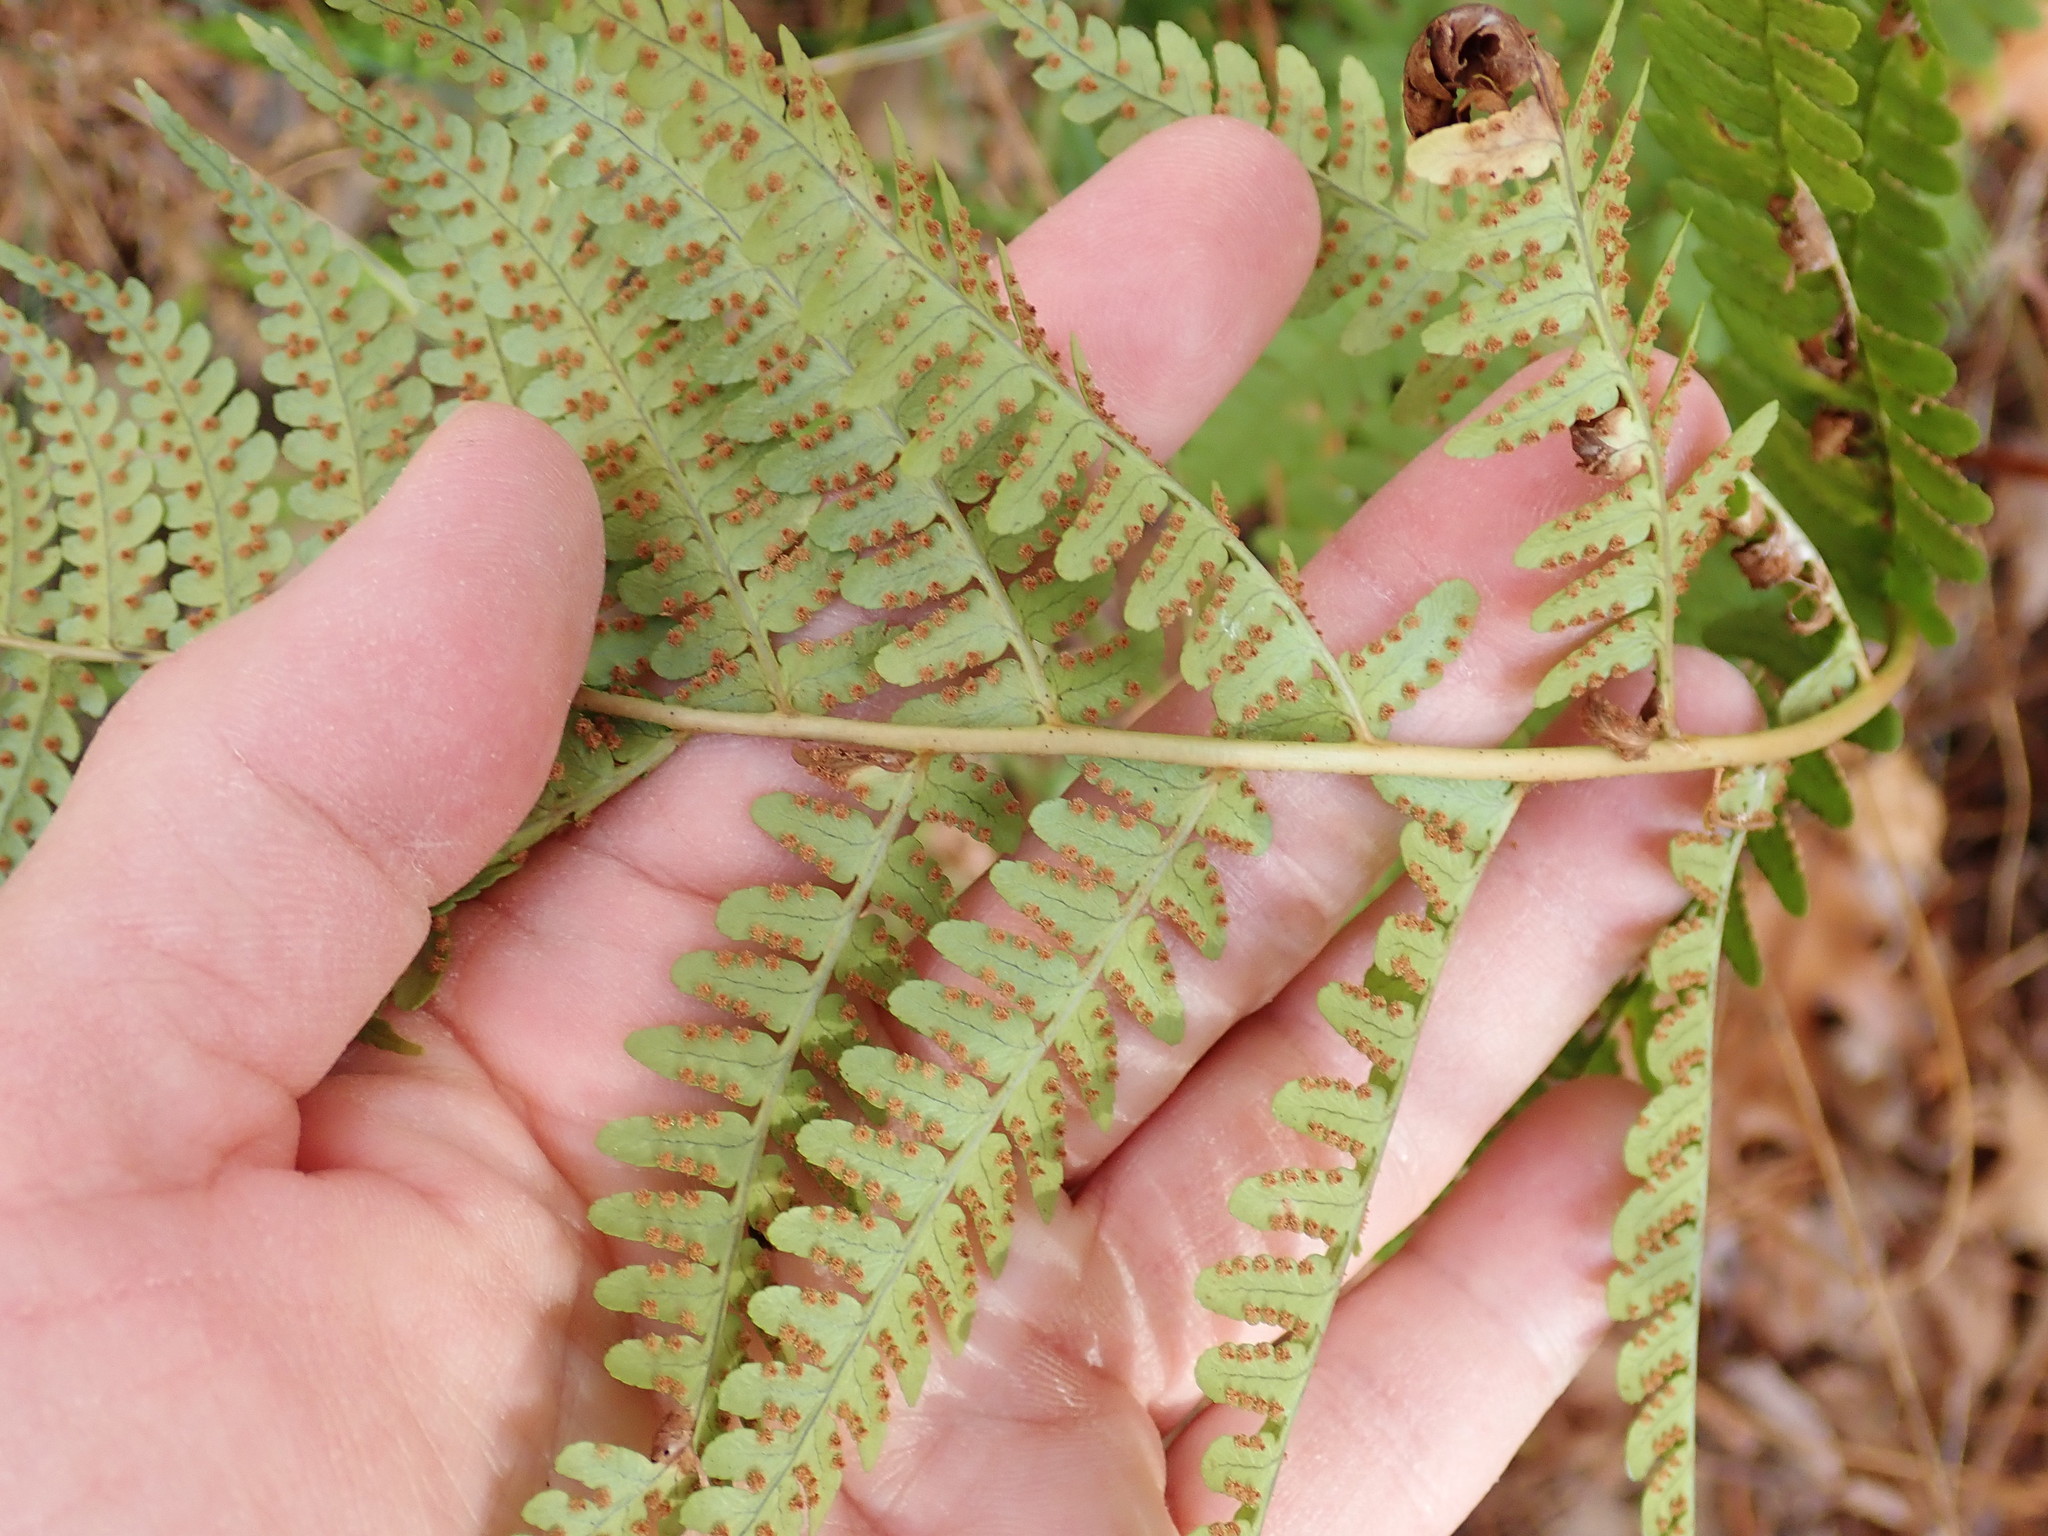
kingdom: Plantae
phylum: Tracheophyta
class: Polypodiopsida
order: Polypodiales
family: Dryopteridaceae
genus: Dryopteris
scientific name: Dryopteris marginalis
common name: Marginal wood fern
